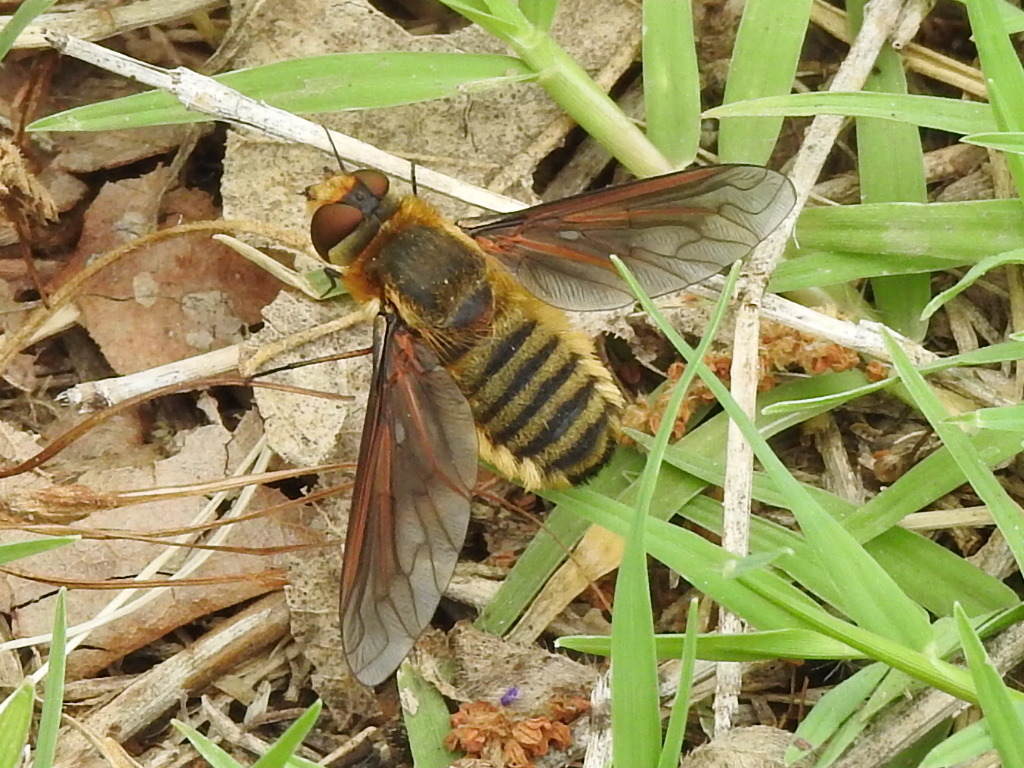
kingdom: Animalia
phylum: Arthropoda
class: Insecta
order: Diptera
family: Bombyliidae
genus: Poecilanthrax
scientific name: Poecilanthrax lucifer
